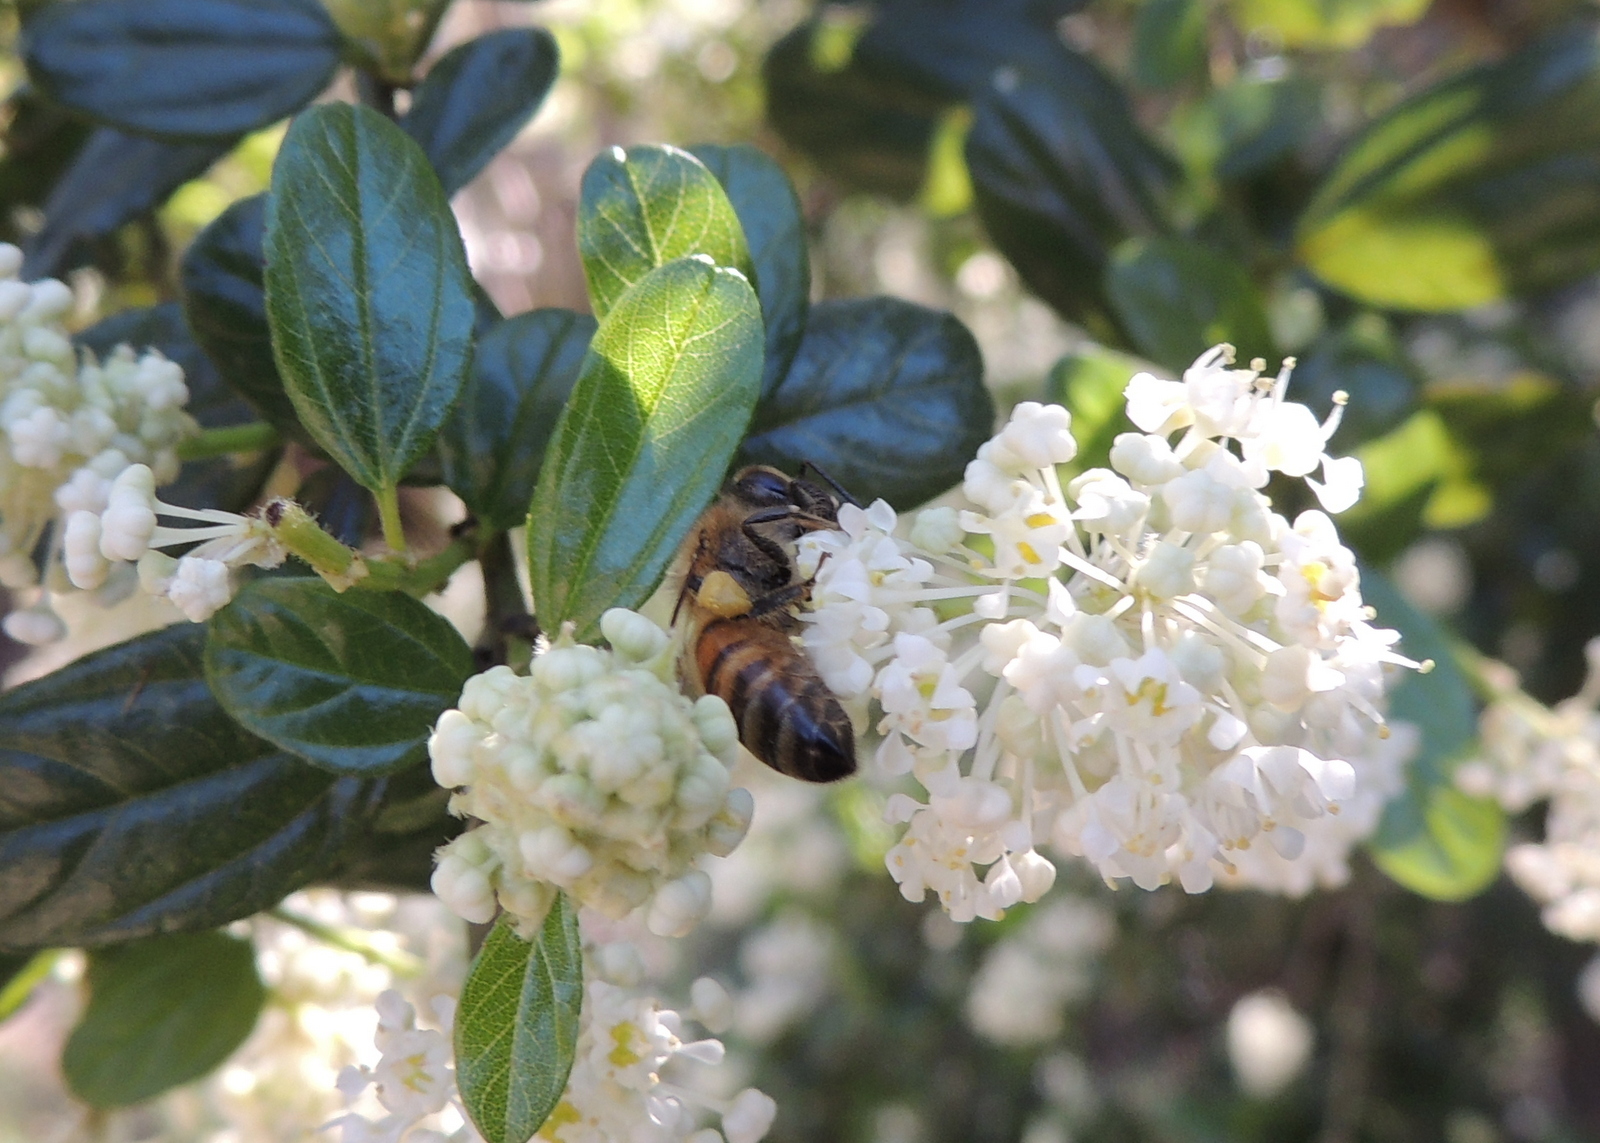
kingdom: Animalia
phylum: Arthropoda
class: Insecta
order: Hymenoptera
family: Apidae
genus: Apis
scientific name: Apis mellifera
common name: Honey bee
